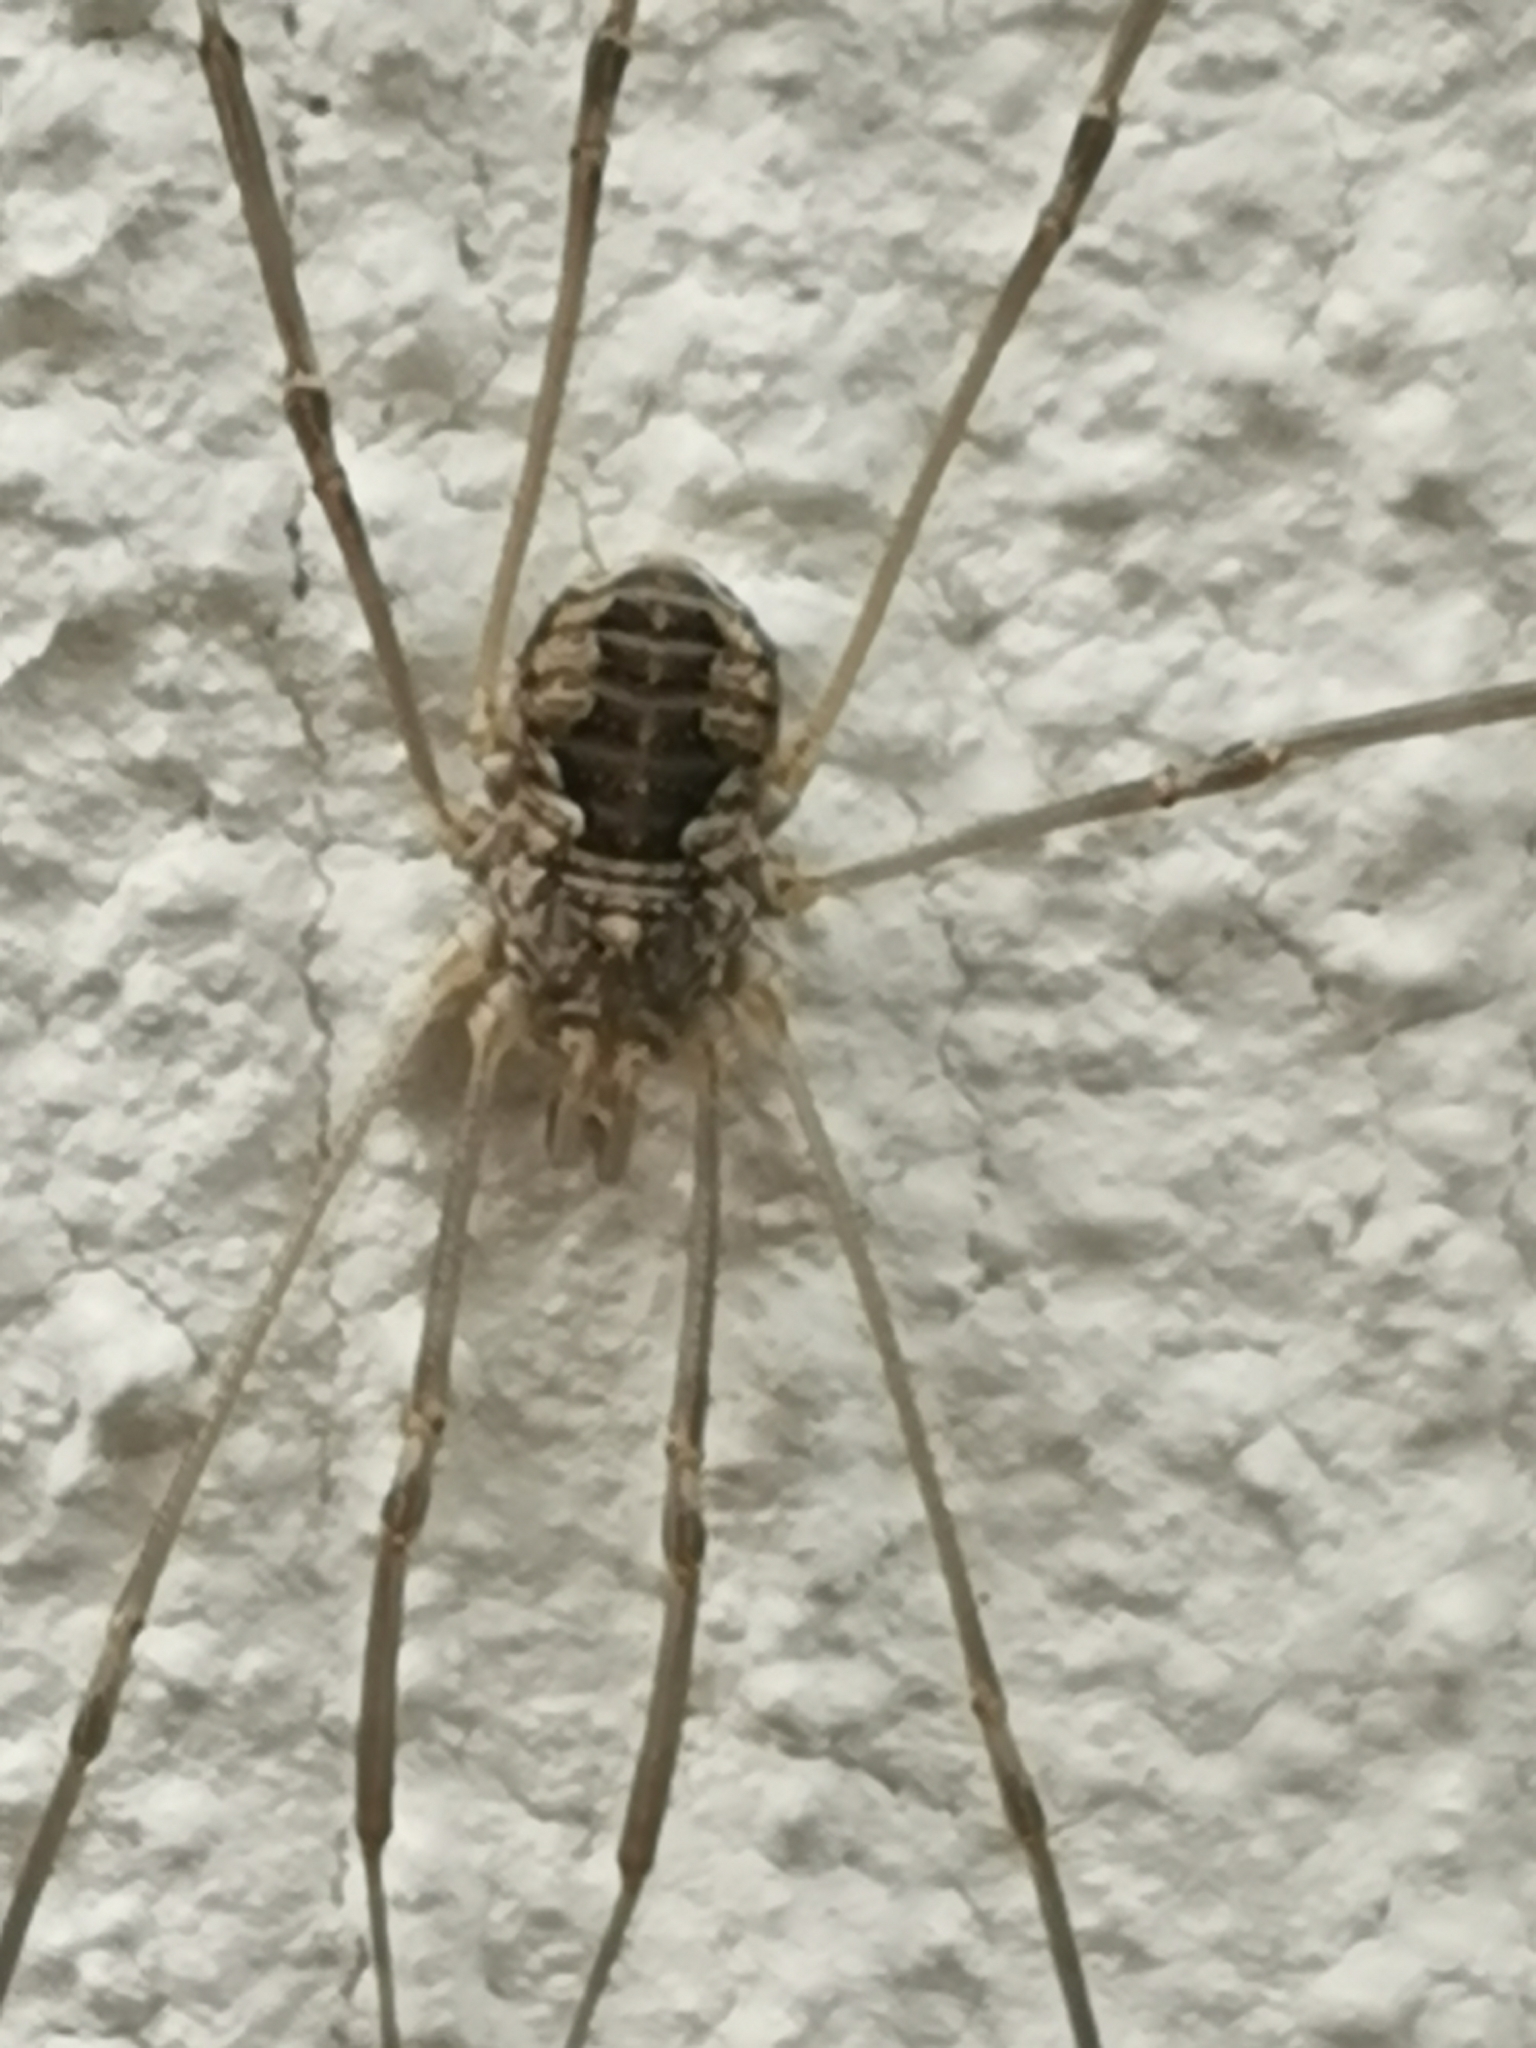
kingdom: Animalia
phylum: Arthropoda
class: Arachnida
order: Opiliones
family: Phalangiidae
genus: Phalangium
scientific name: Phalangium opilio
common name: Daddy longleg
